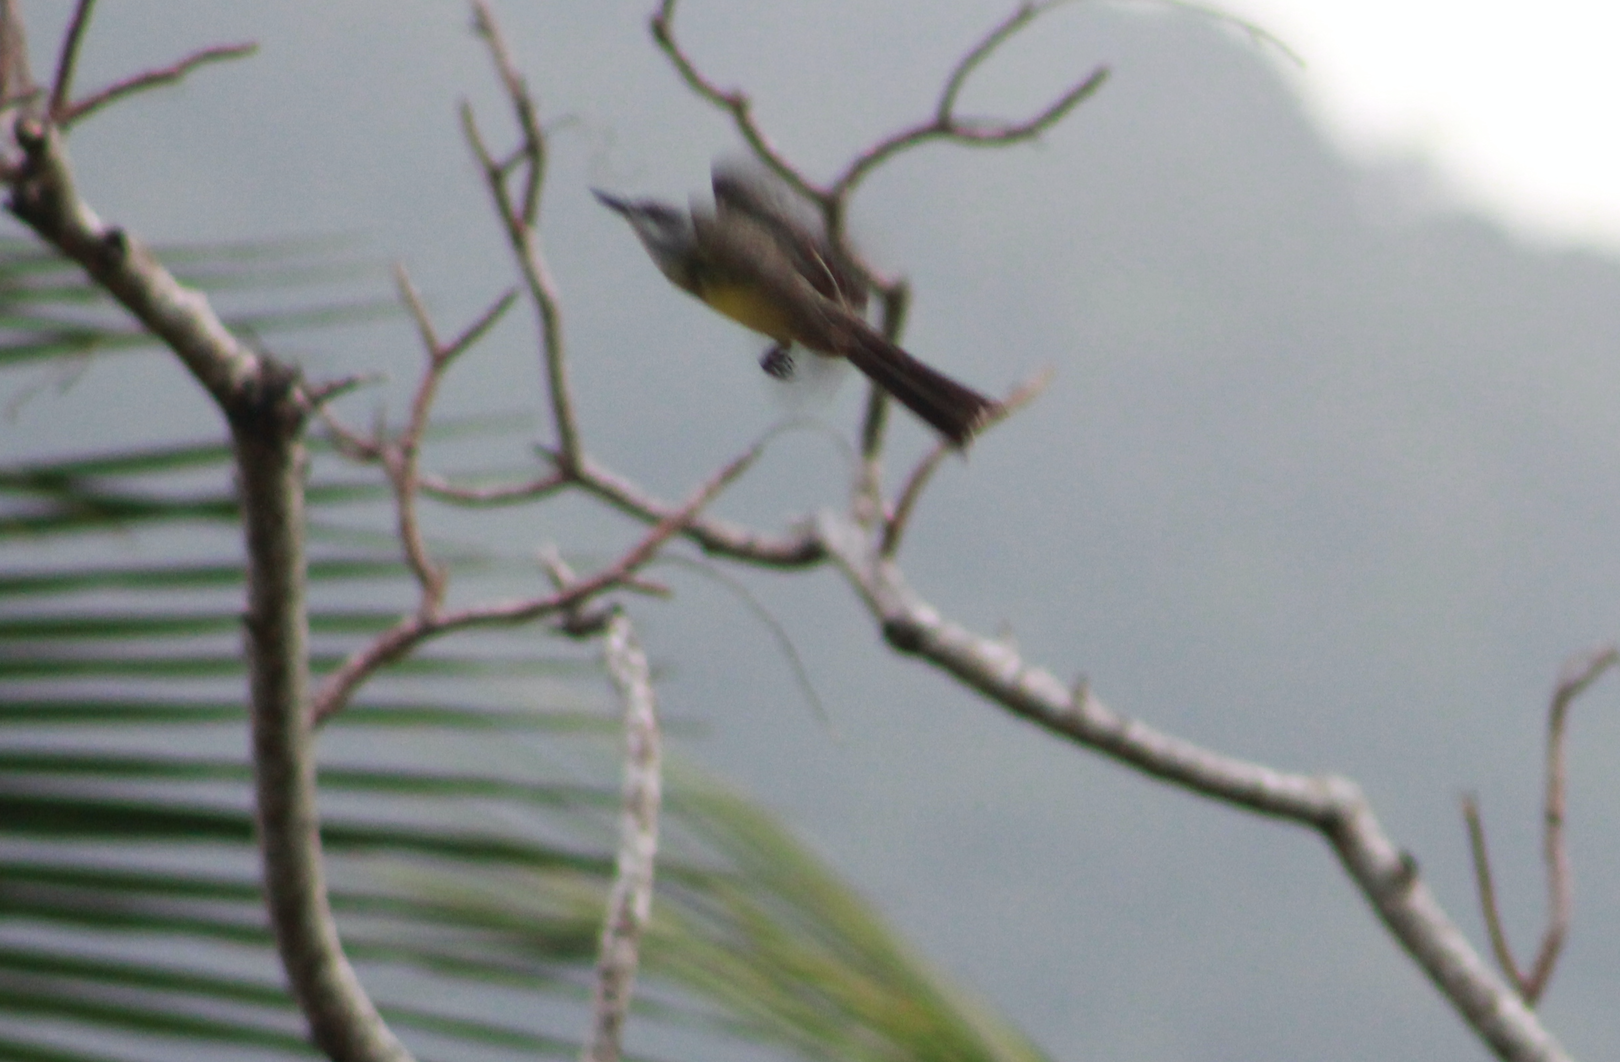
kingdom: Animalia
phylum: Chordata
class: Aves
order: Passeriformes
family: Tyrannidae
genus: Tyrannus
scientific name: Tyrannus melancholicus
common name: Tropical kingbird
